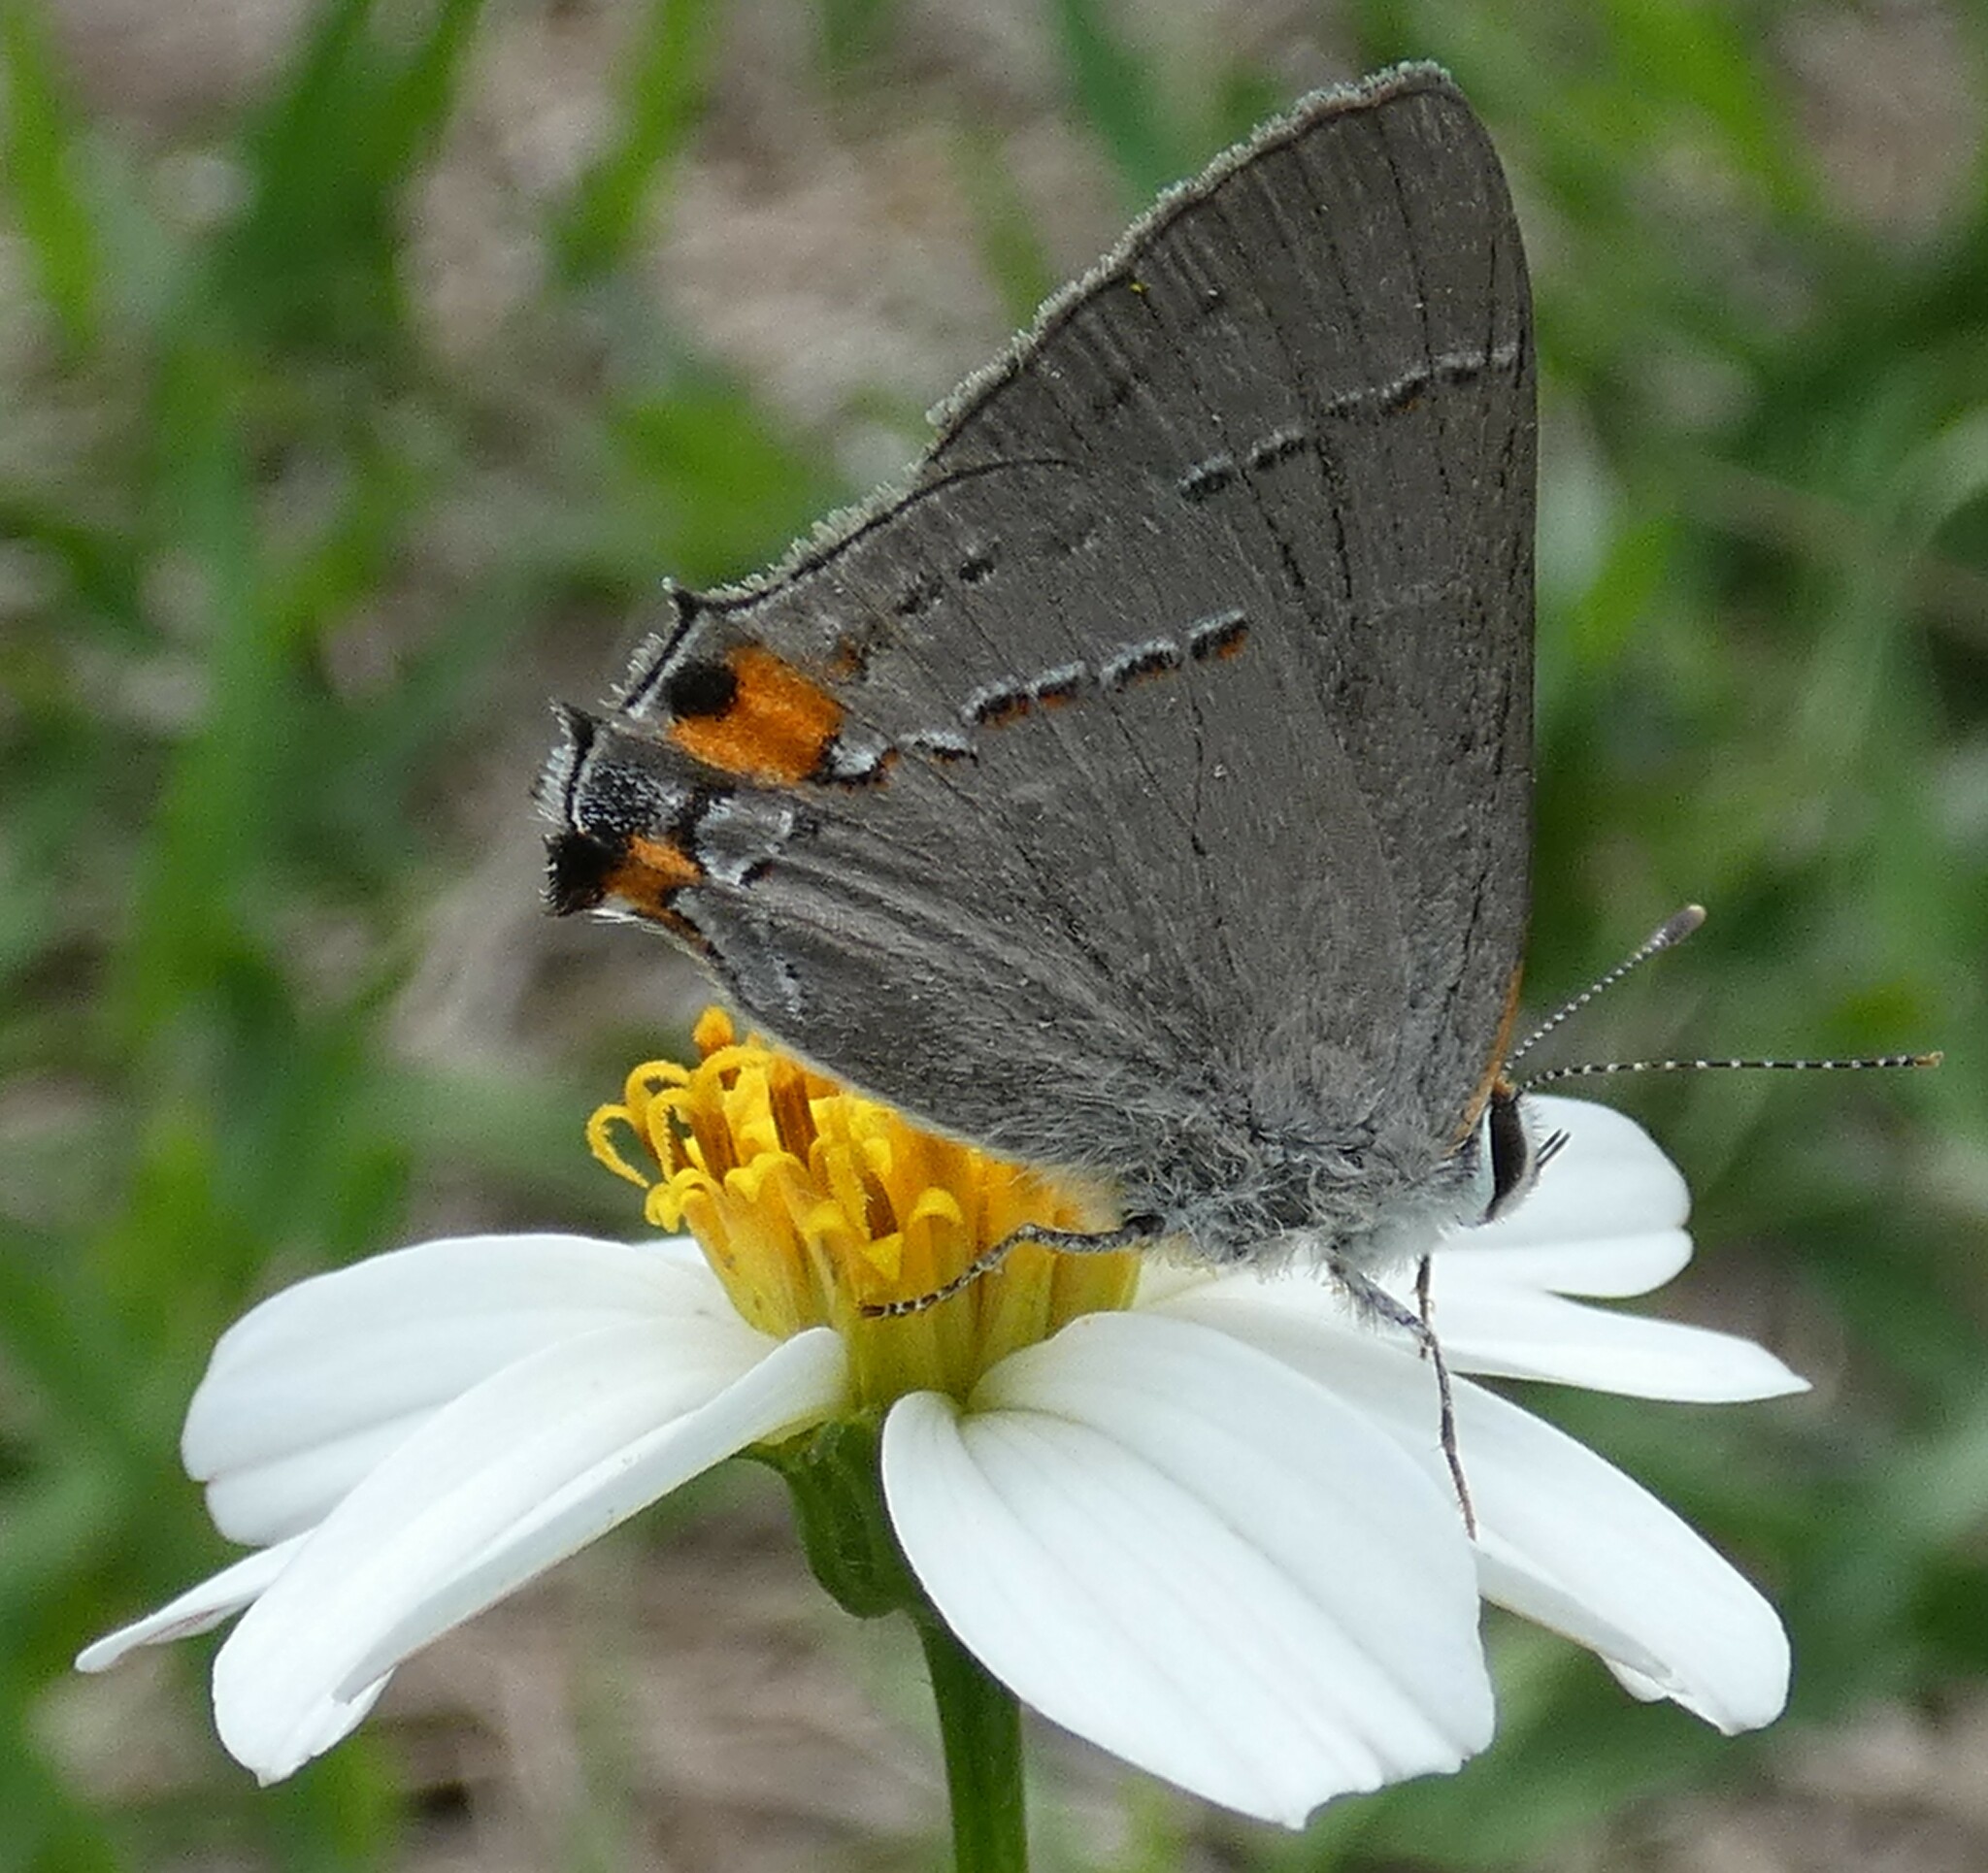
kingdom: Animalia
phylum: Arthropoda
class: Insecta
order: Lepidoptera
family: Lycaenidae
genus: Strymon
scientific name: Strymon melinus
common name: Gray hairstreak
